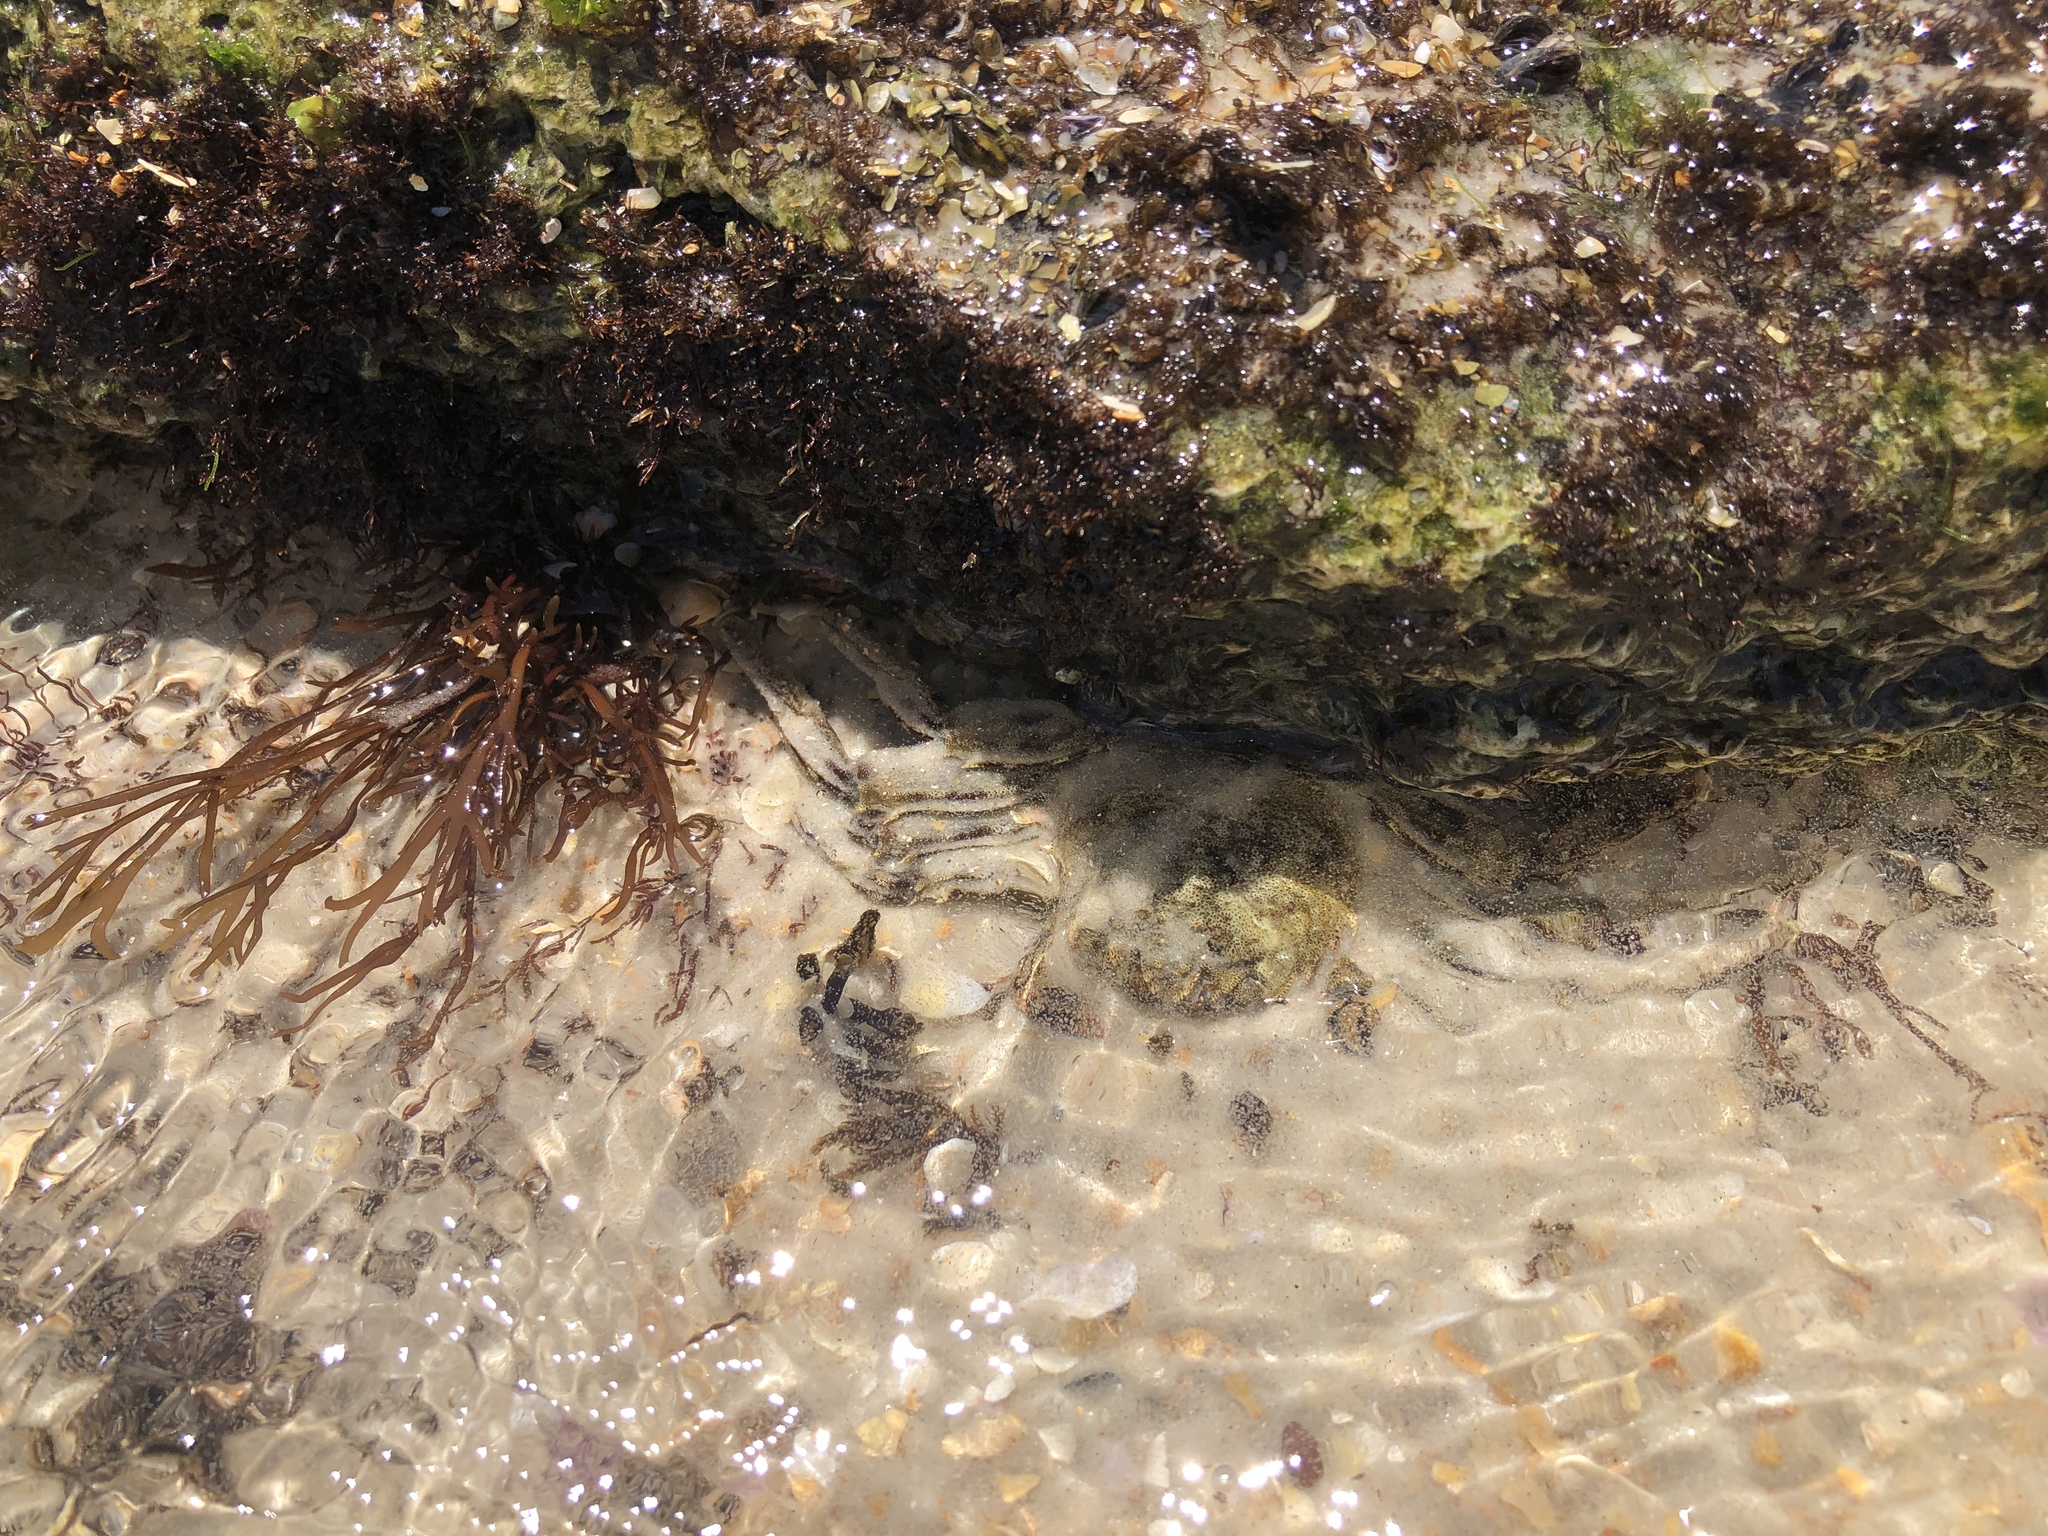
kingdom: Animalia
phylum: Arthropoda
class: Malacostraca
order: Decapoda
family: Plagusiidae
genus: Plagusia
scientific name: Plagusia depressa
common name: Flattened crab
